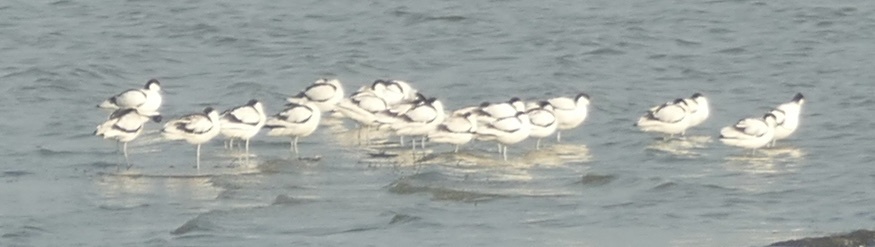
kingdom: Animalia
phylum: Chordata
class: Aves
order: Charadriiformes
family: Recurvirostridae
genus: Recurvirostra
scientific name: Recurvirostra avosetta
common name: Pied avocet
